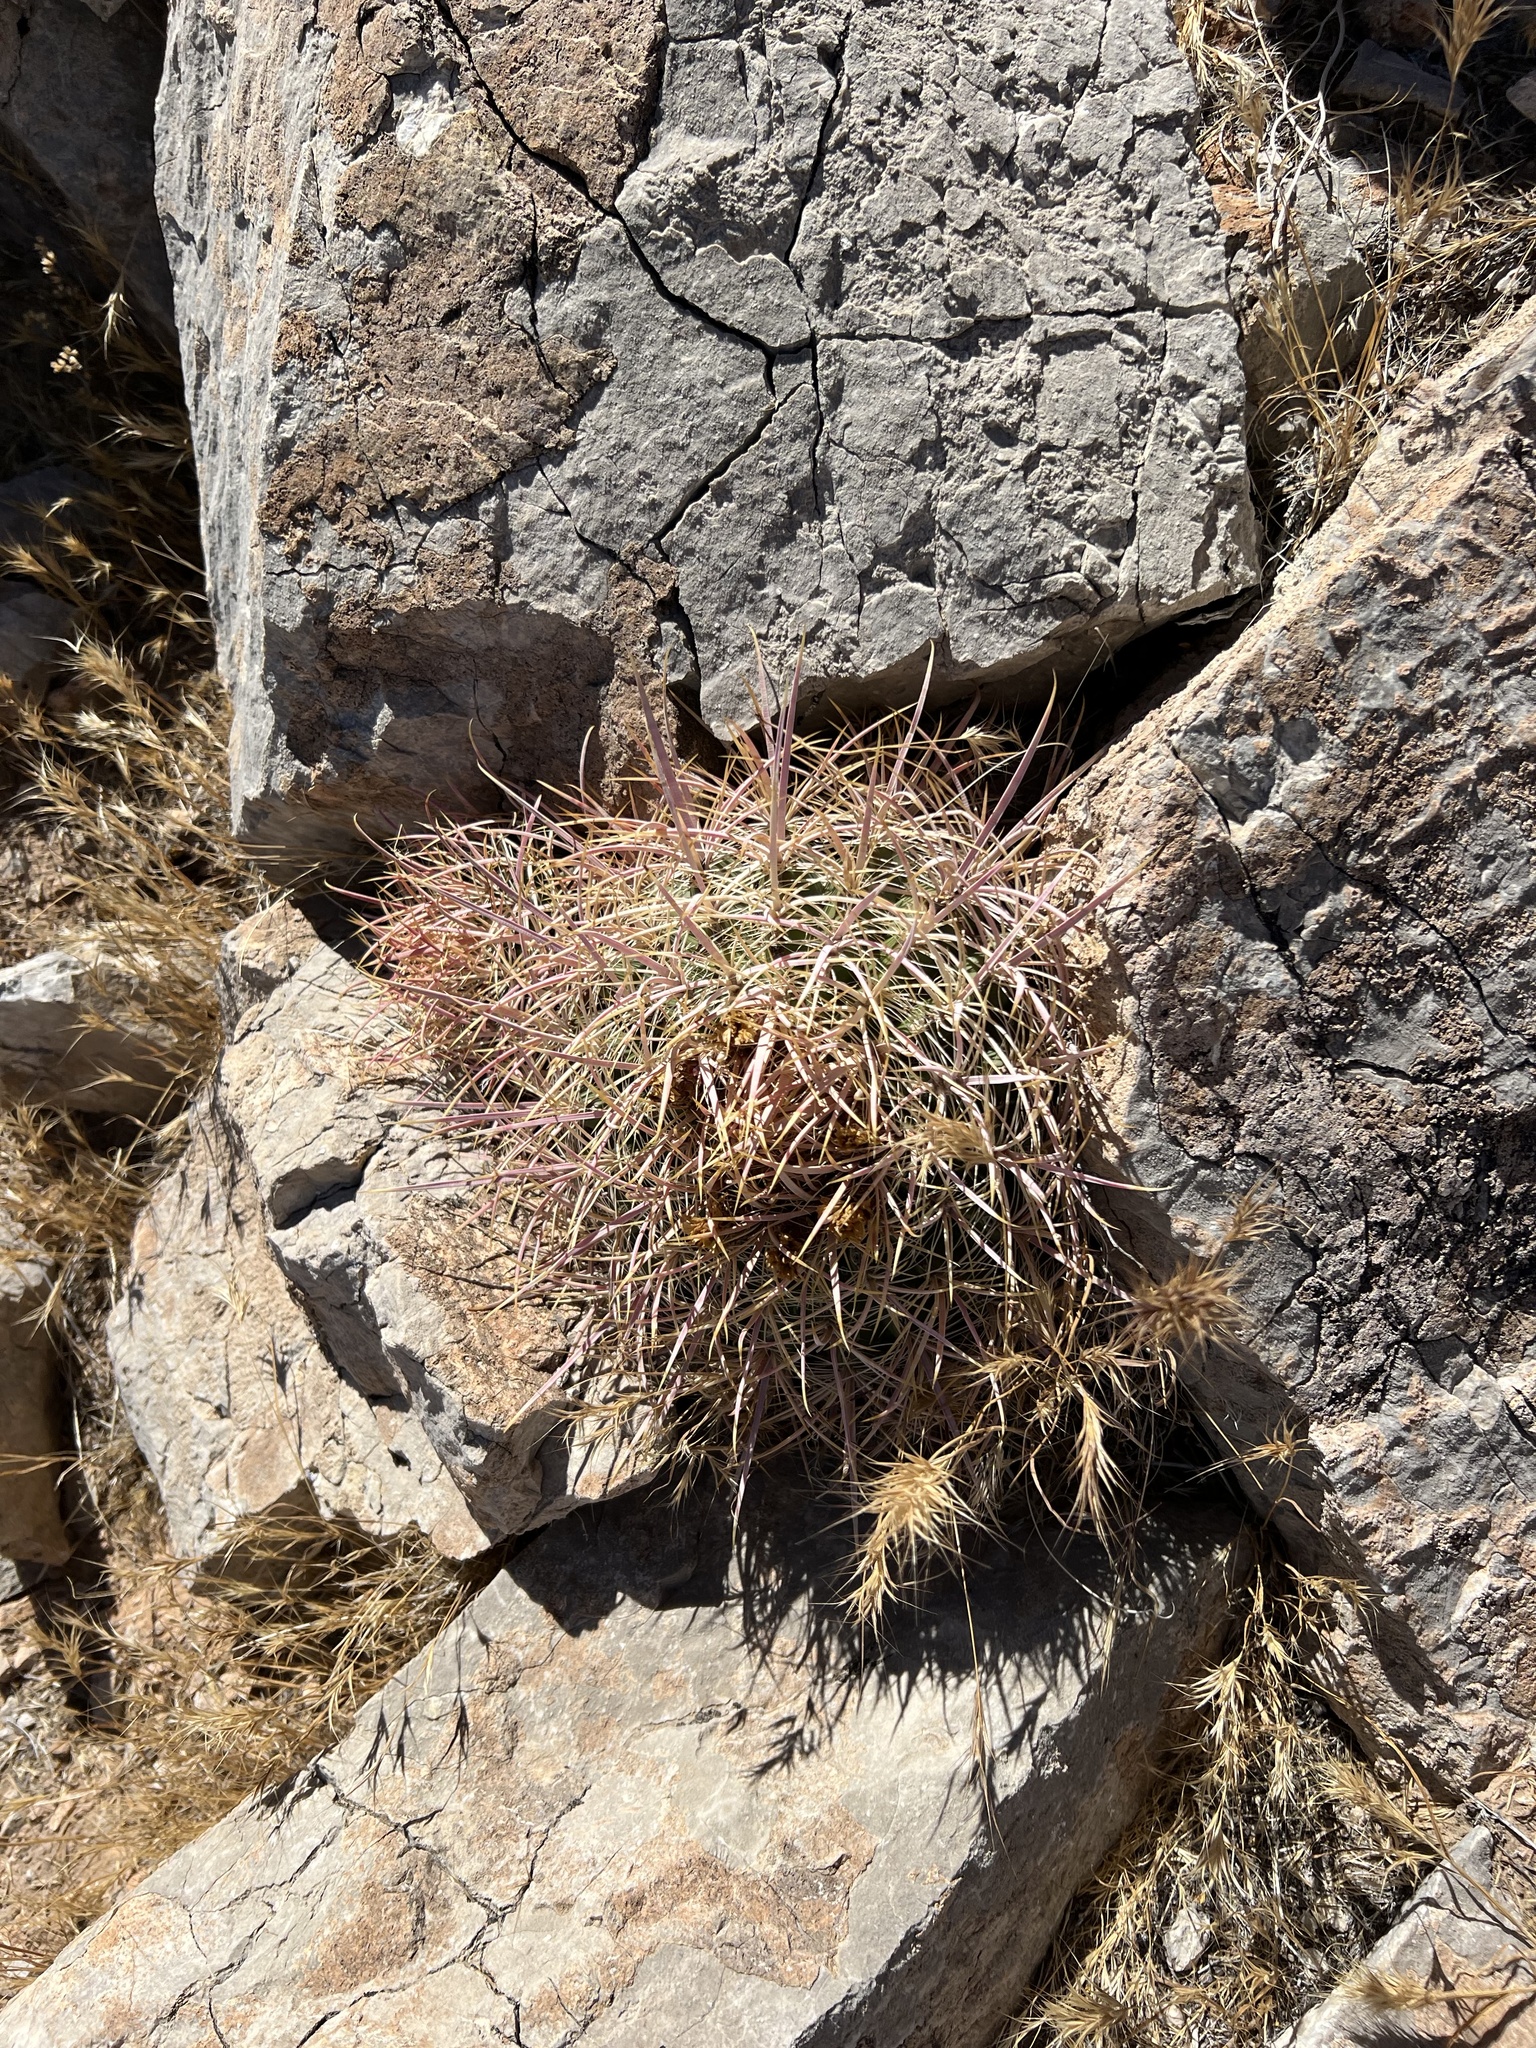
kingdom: Plantae
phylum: Tracheophyta
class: Magnoliopsida
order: Caryophyllales
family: Cactaceae
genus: Ferocactus
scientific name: Ferocactus cylindraceus
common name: California barrel cactus
